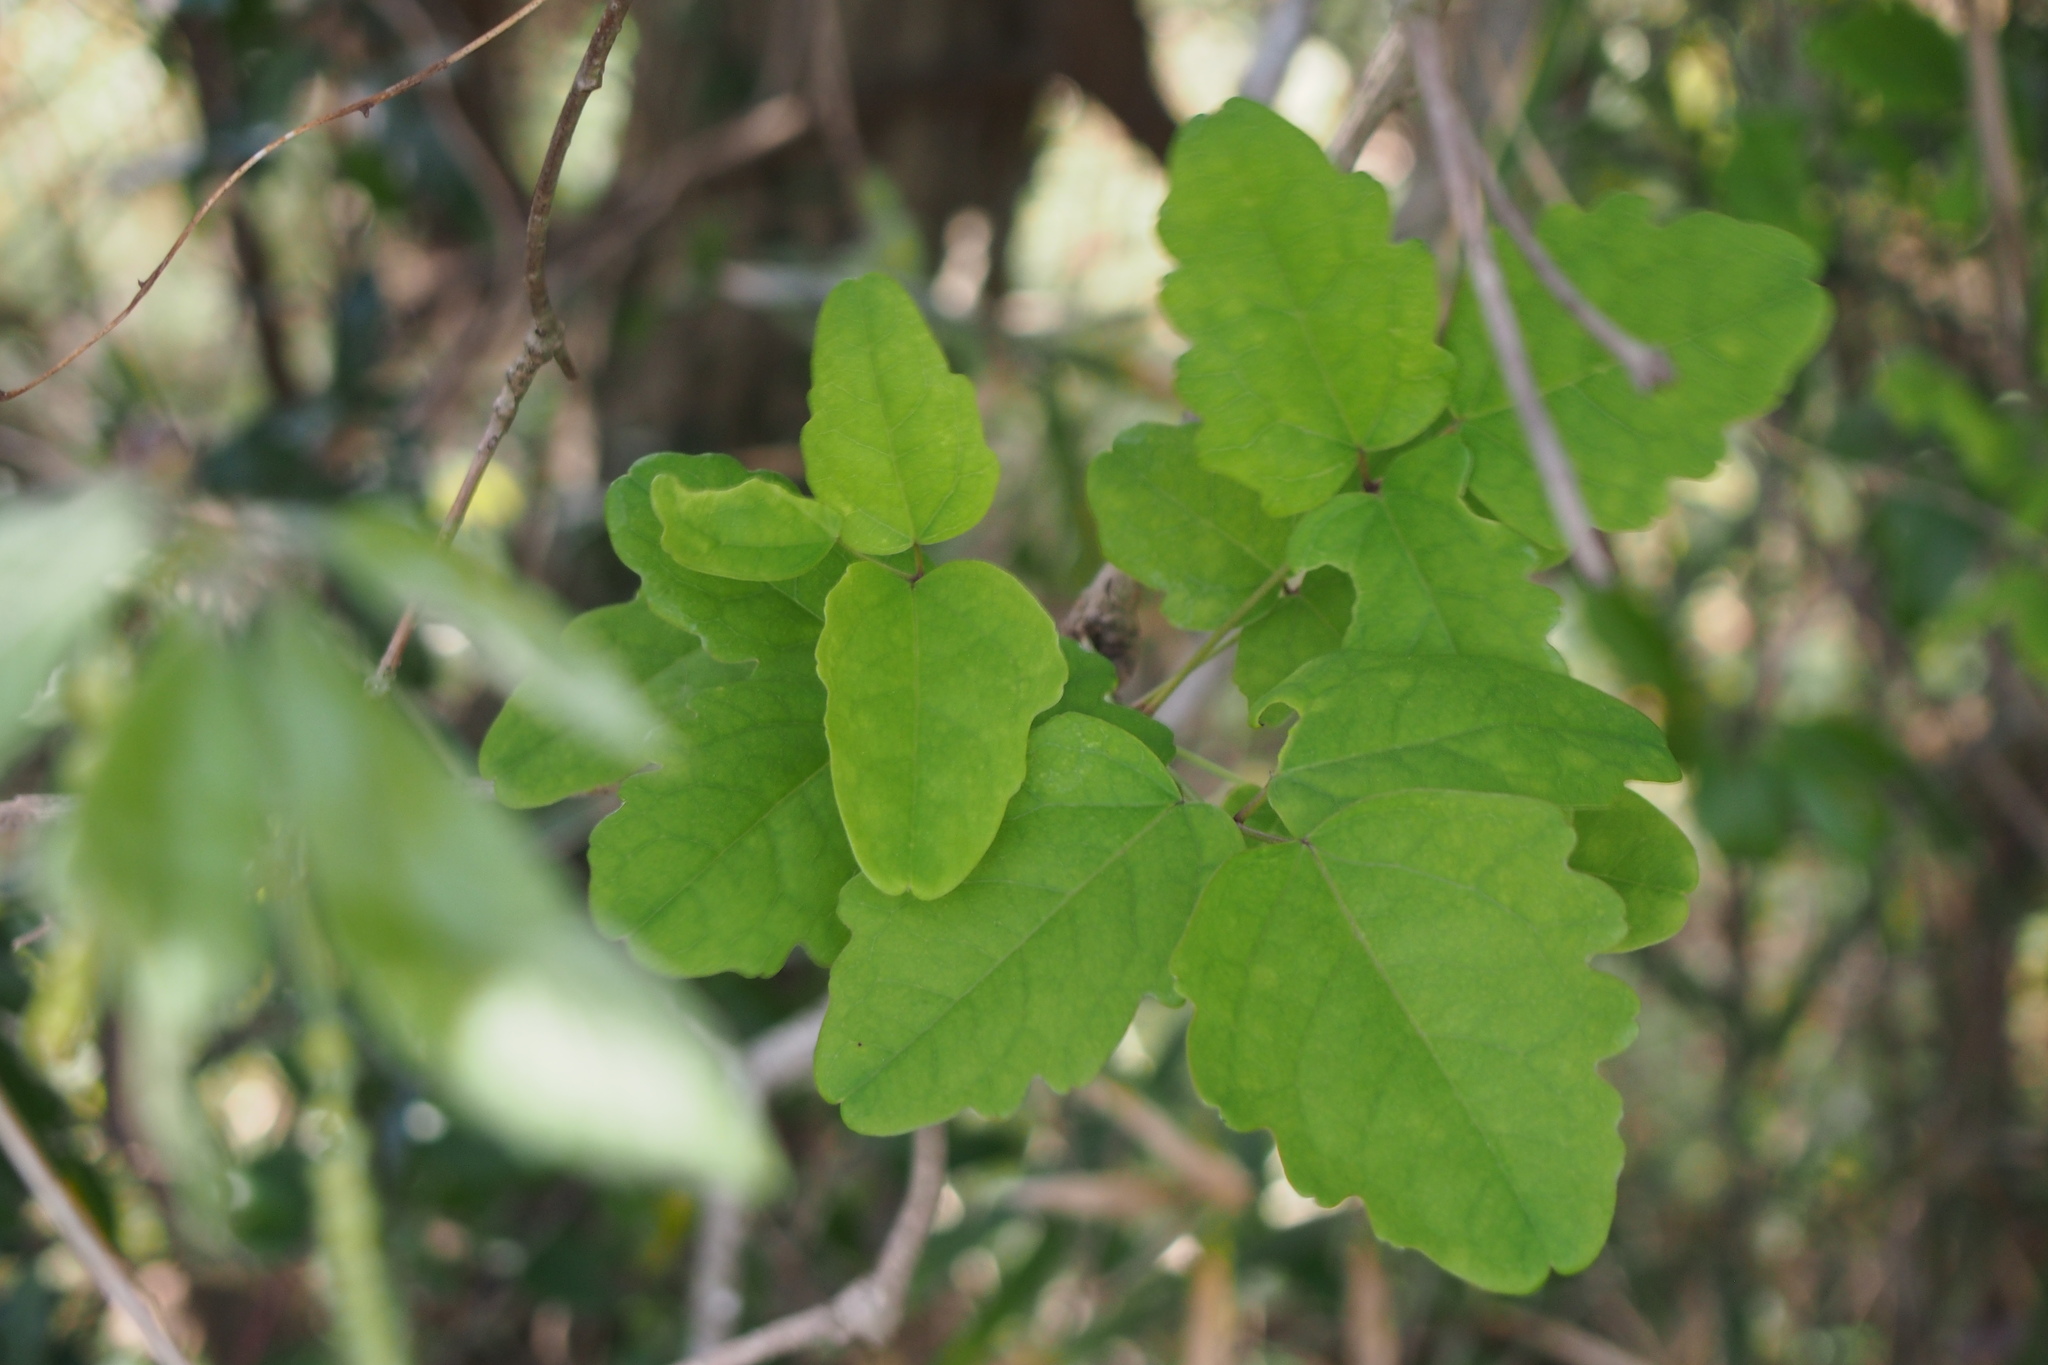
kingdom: Plantae
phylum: Tracheophyta
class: Magnoliopsida
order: Ranunculales
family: Lardizabalaceae
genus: Akebia
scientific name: Akebia trifoliata
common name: Chocolate-vine
